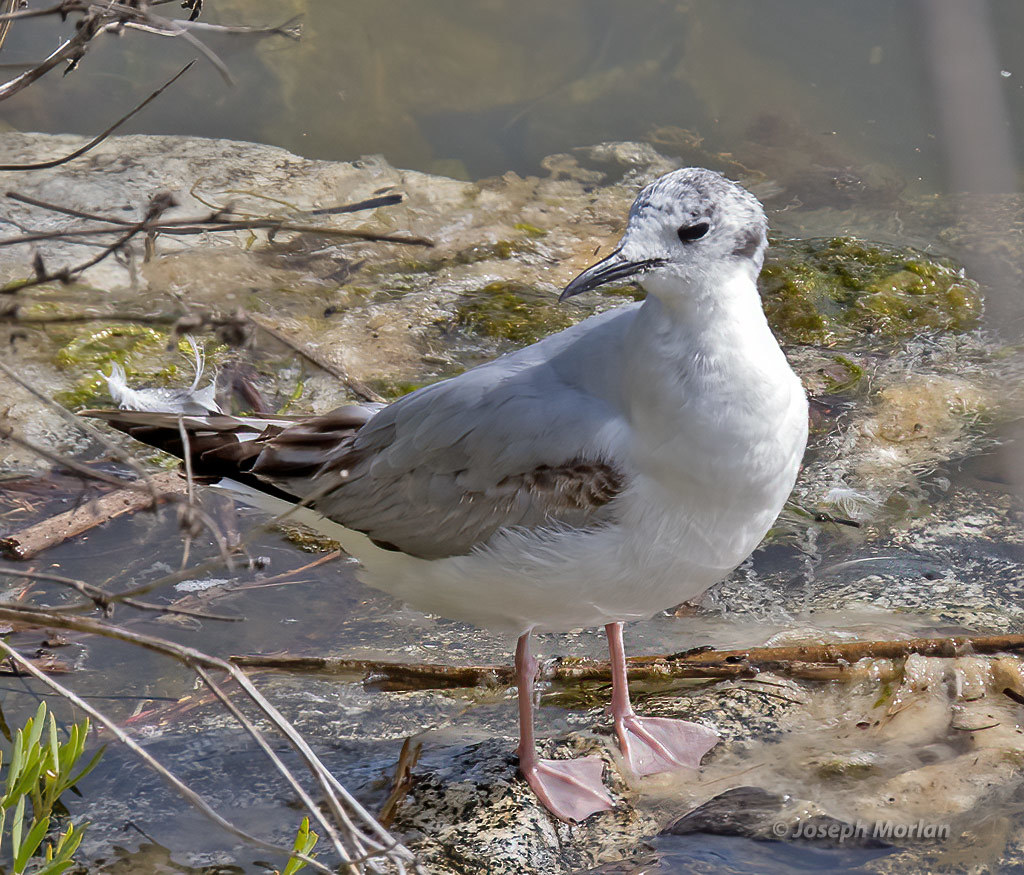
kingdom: Animalia
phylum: Chordata
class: Aves
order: Charadriiformes
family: Laridae
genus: Chroicocephalus
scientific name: Chroicocephalus philadelphia
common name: Bonaparte's gull
